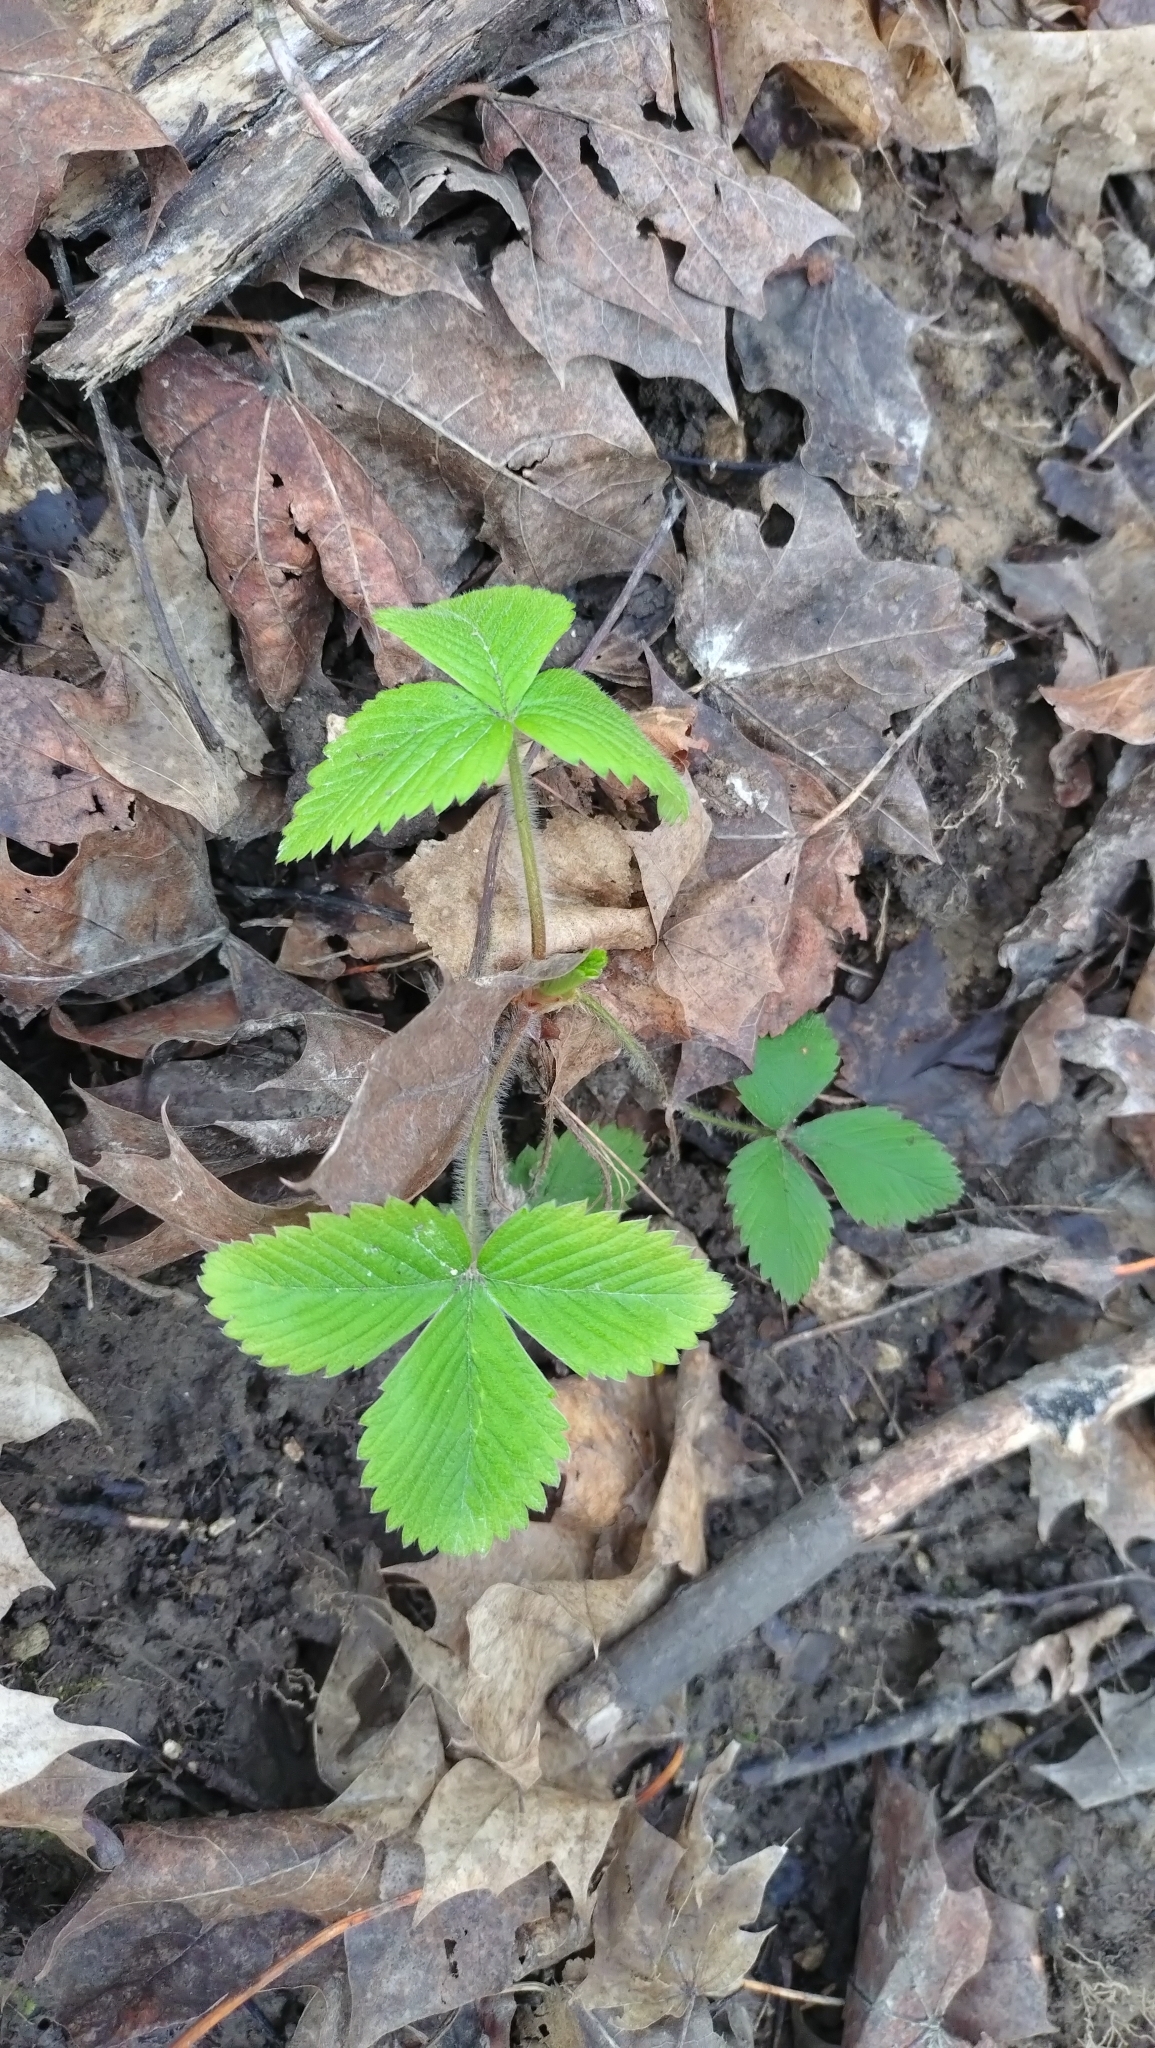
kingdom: Plantae
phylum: Tracheophyta
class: Magnoliopsida
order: Rosales
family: Rosaceae
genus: Fragaria
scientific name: Fragaria vesca
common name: Wild strawberry
